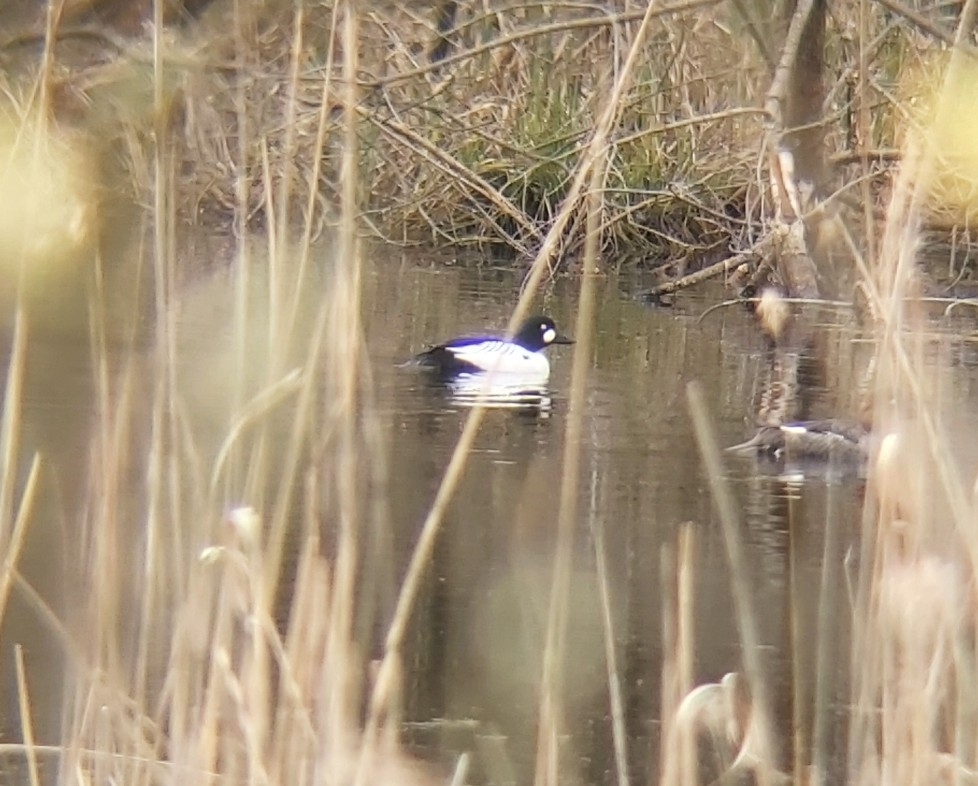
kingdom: Animalia
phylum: Chordata
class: Aves
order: Anseriformes
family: Anatidae
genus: Bucephala
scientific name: Bucephala clangula
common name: Common goldeneye
